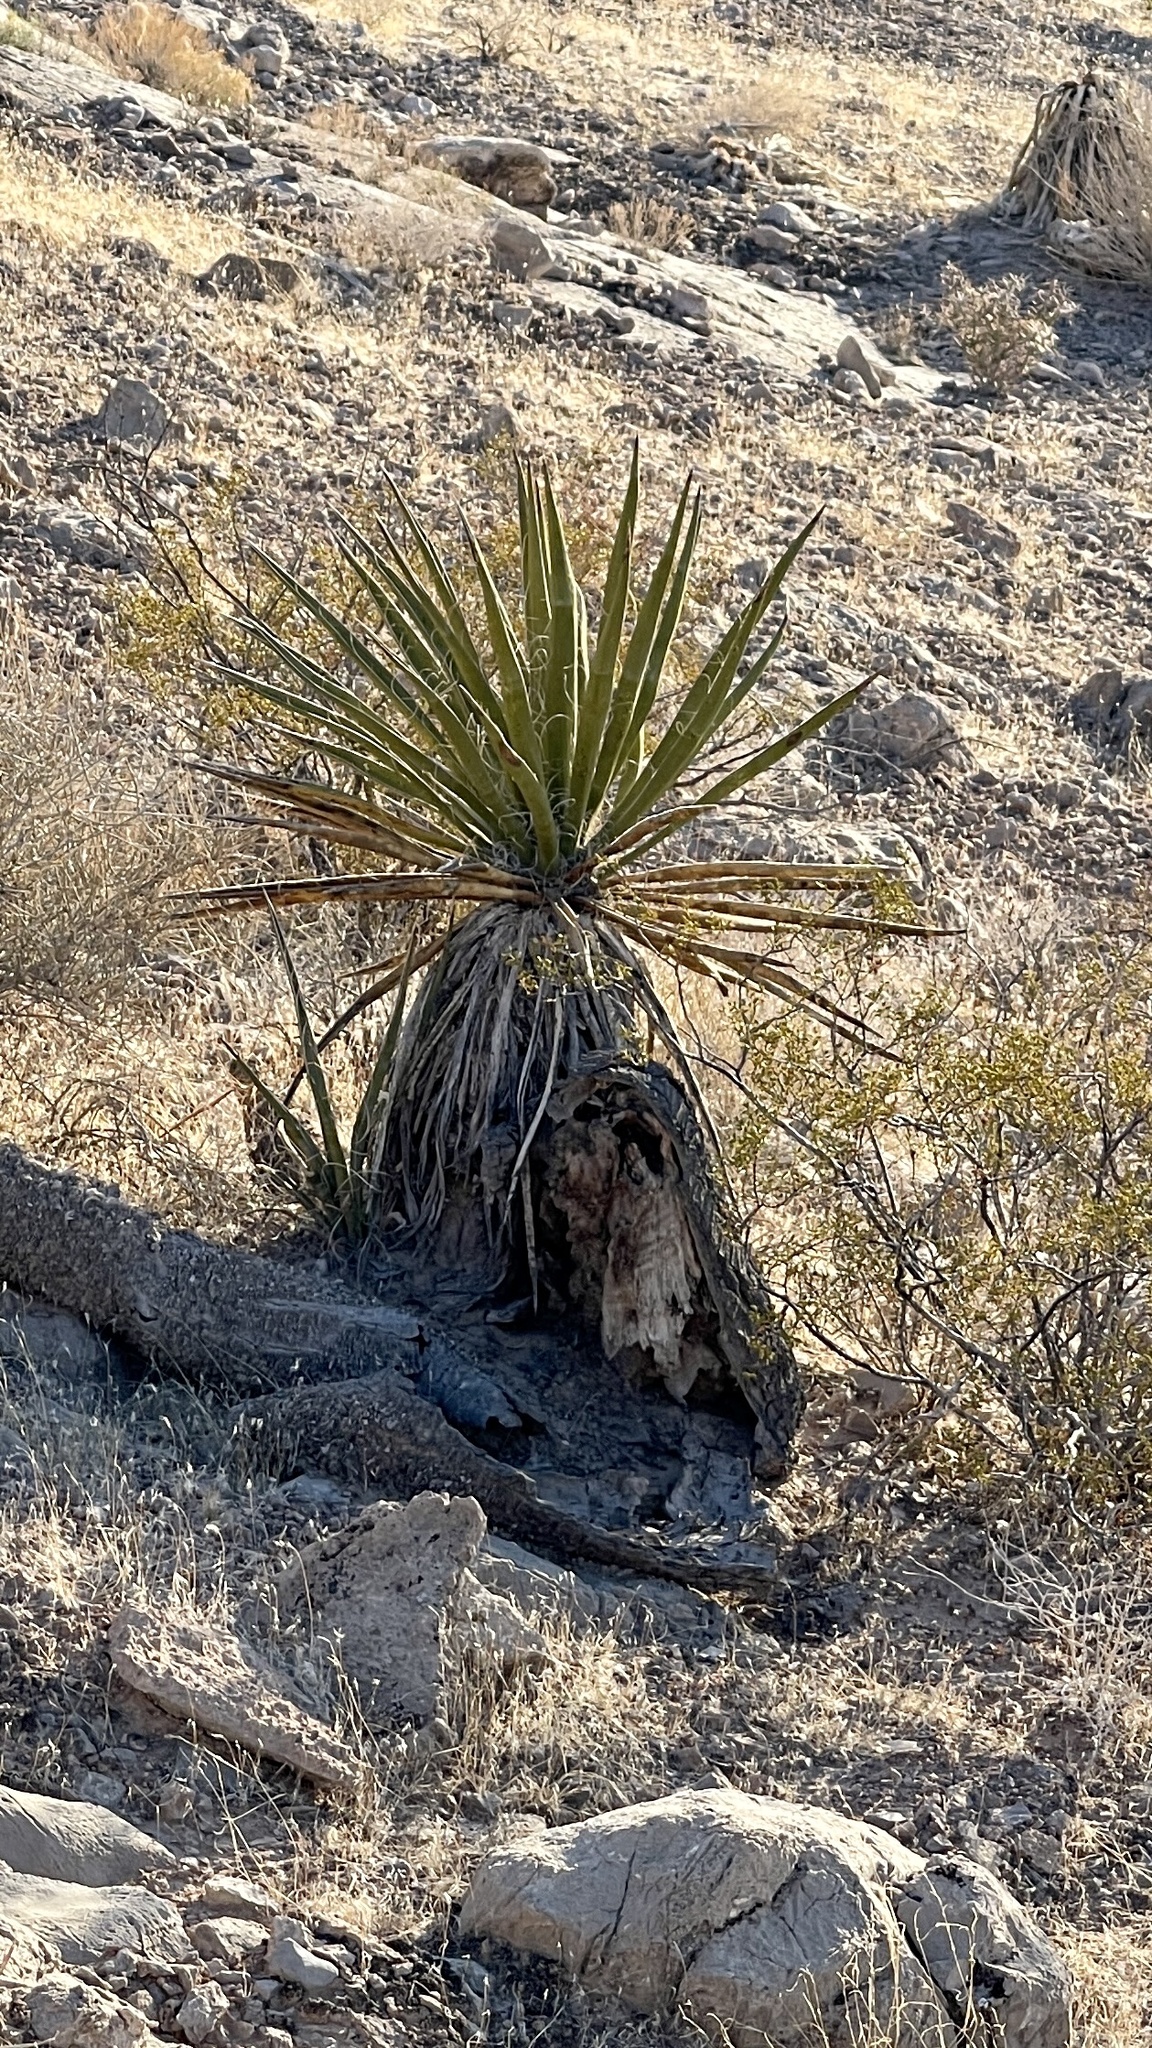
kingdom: Plantae
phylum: Tracheophyta
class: Liliopsida
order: Asparagales
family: Asparagaceae
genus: Yucca
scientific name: Yucca schidigera
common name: Mojave yucca
